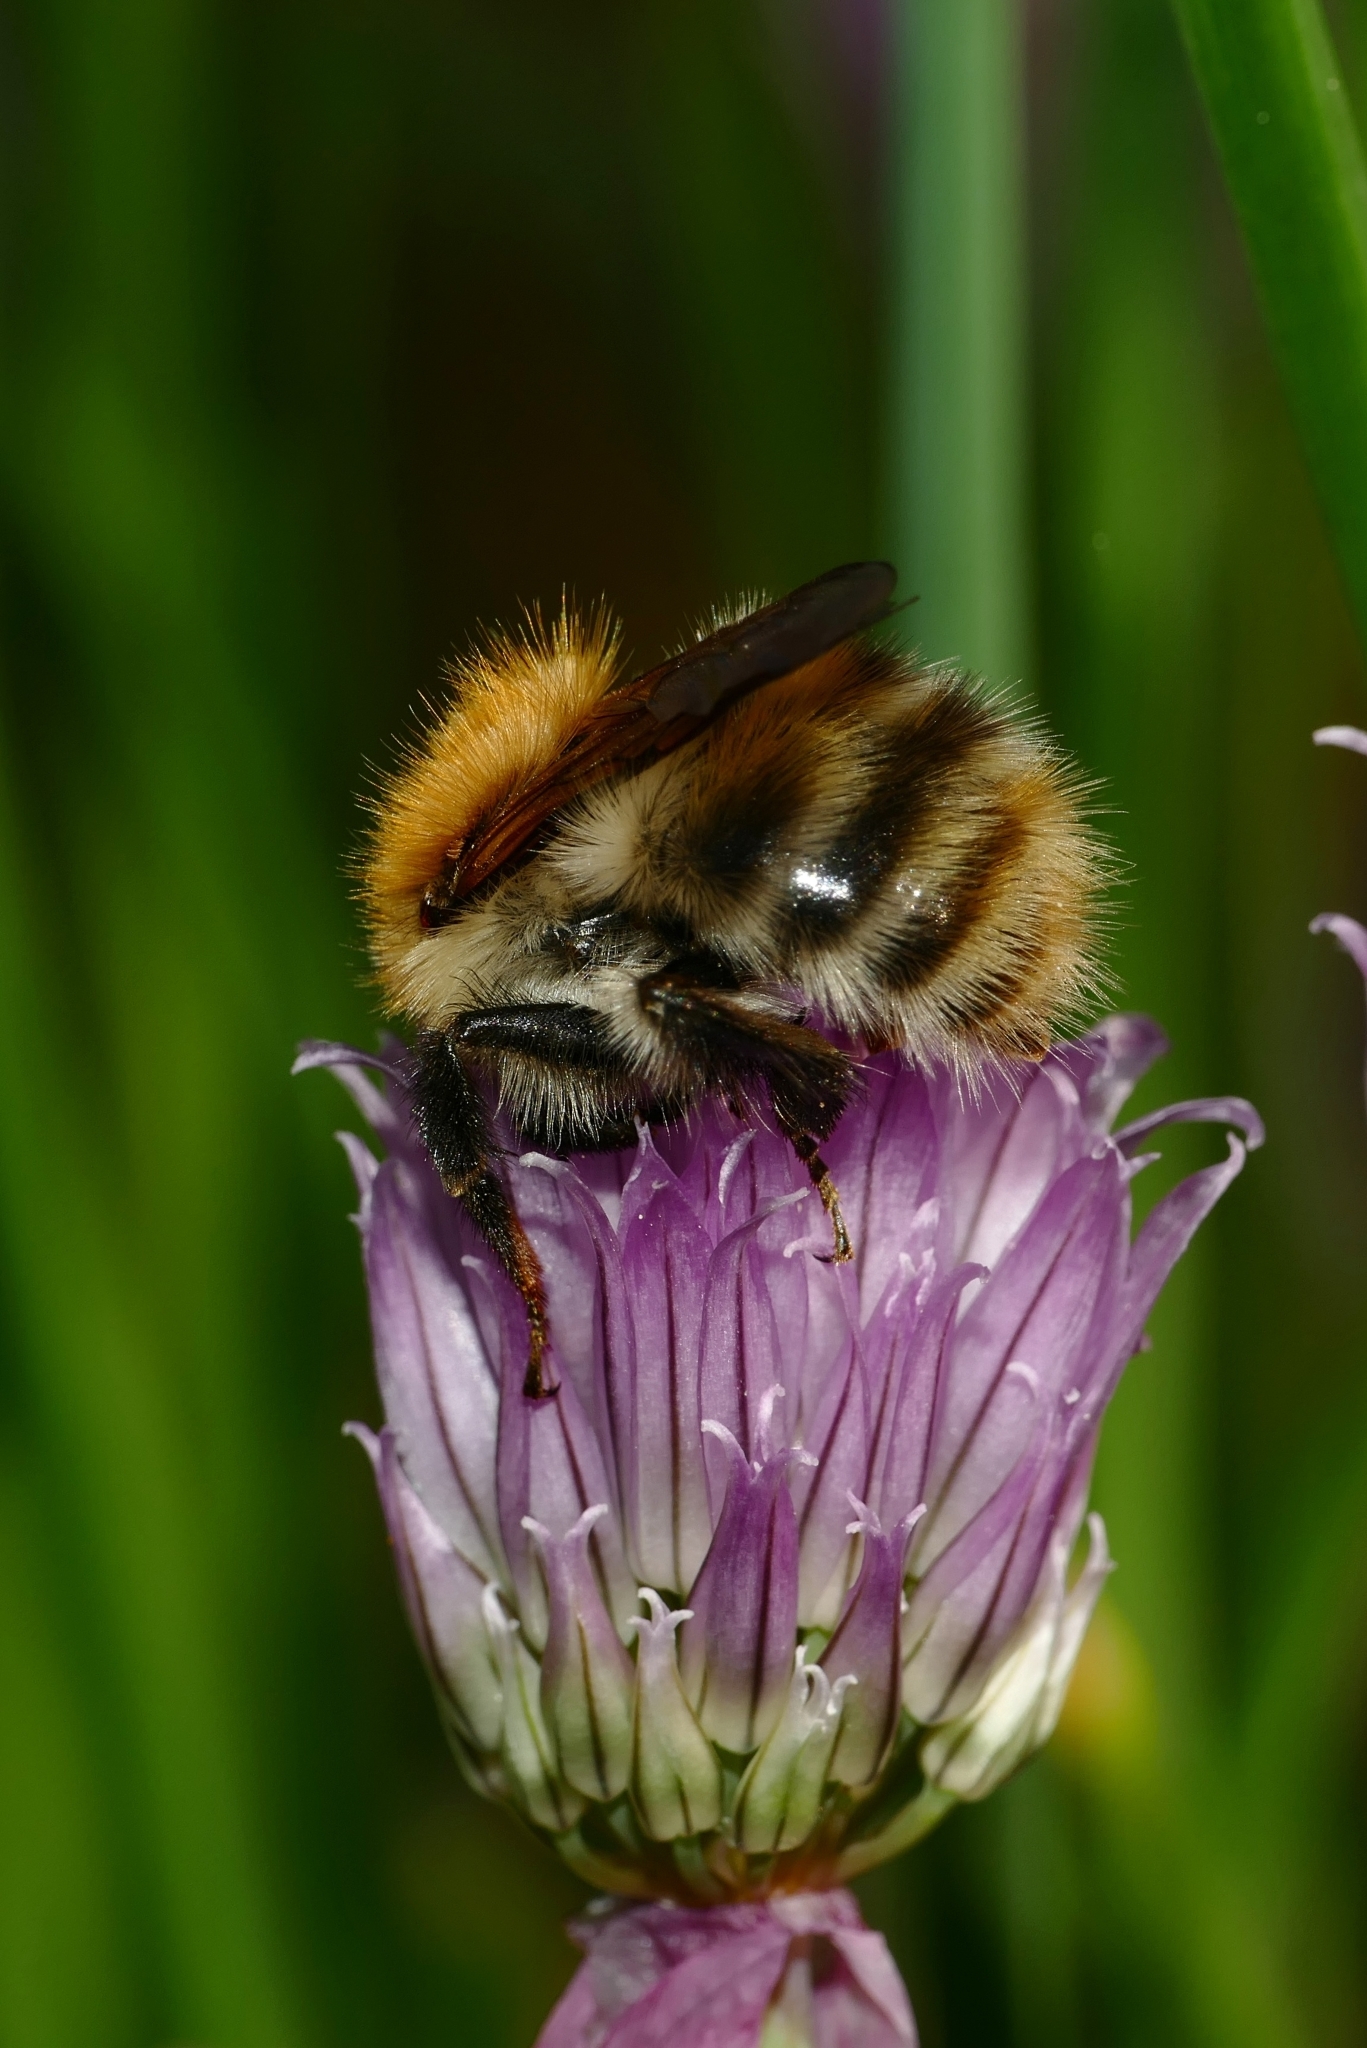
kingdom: Animalia
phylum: Arthropoda
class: Insecta
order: Hymenoptera
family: Apidae
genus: Bombus
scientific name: Bombus pascuorum
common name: Common carder bee
